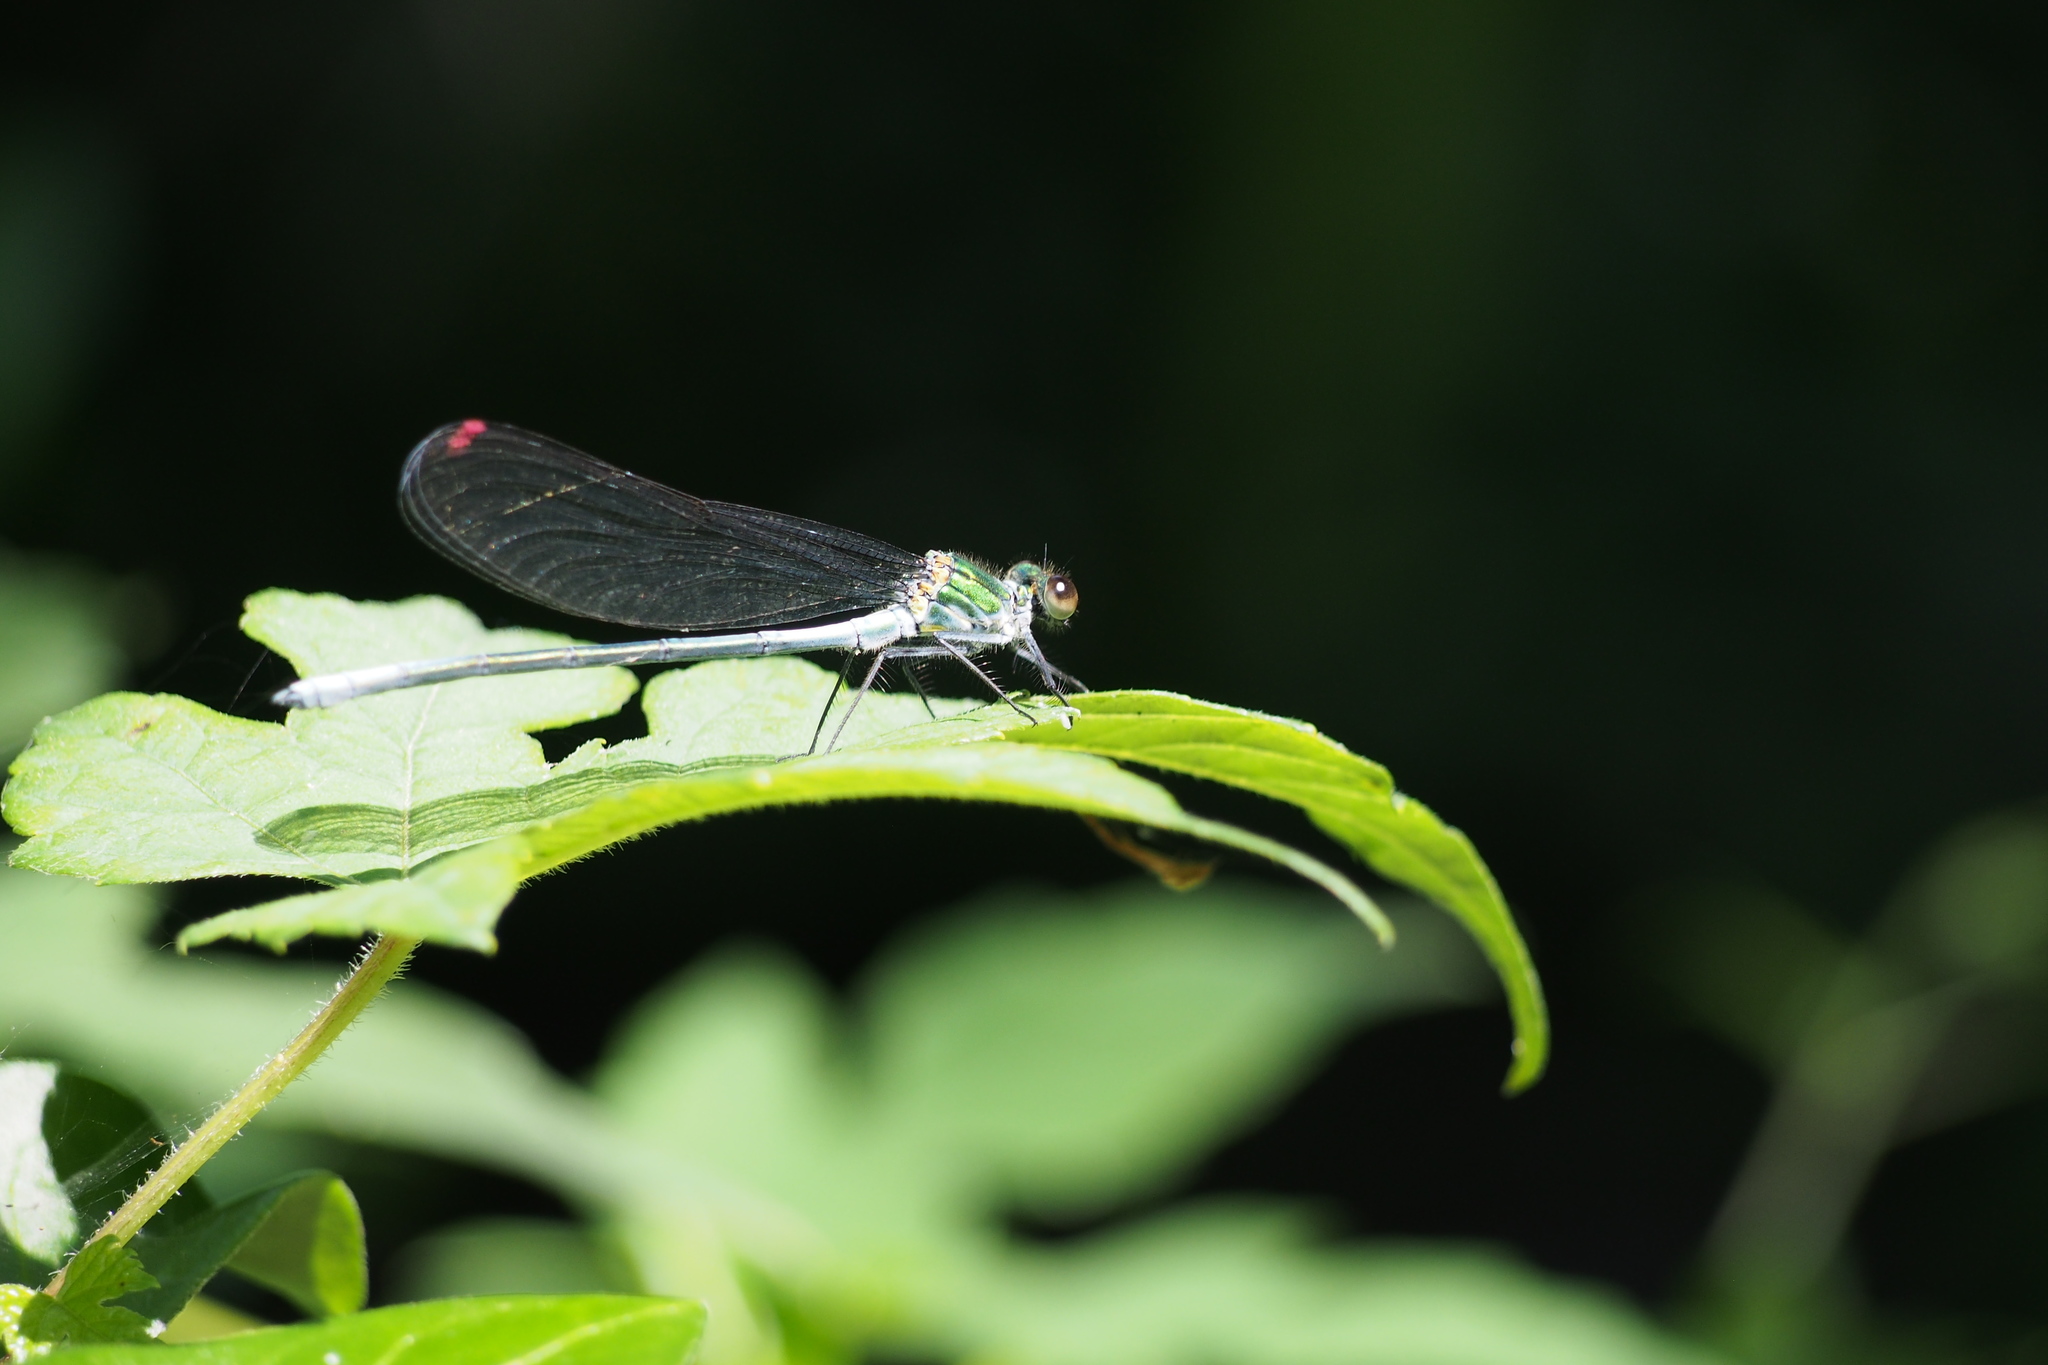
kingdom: Animalia
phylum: Arthropoda
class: Insecta
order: Odonata
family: Calopterygidae
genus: Mnais
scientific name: Mnais pruinosa
